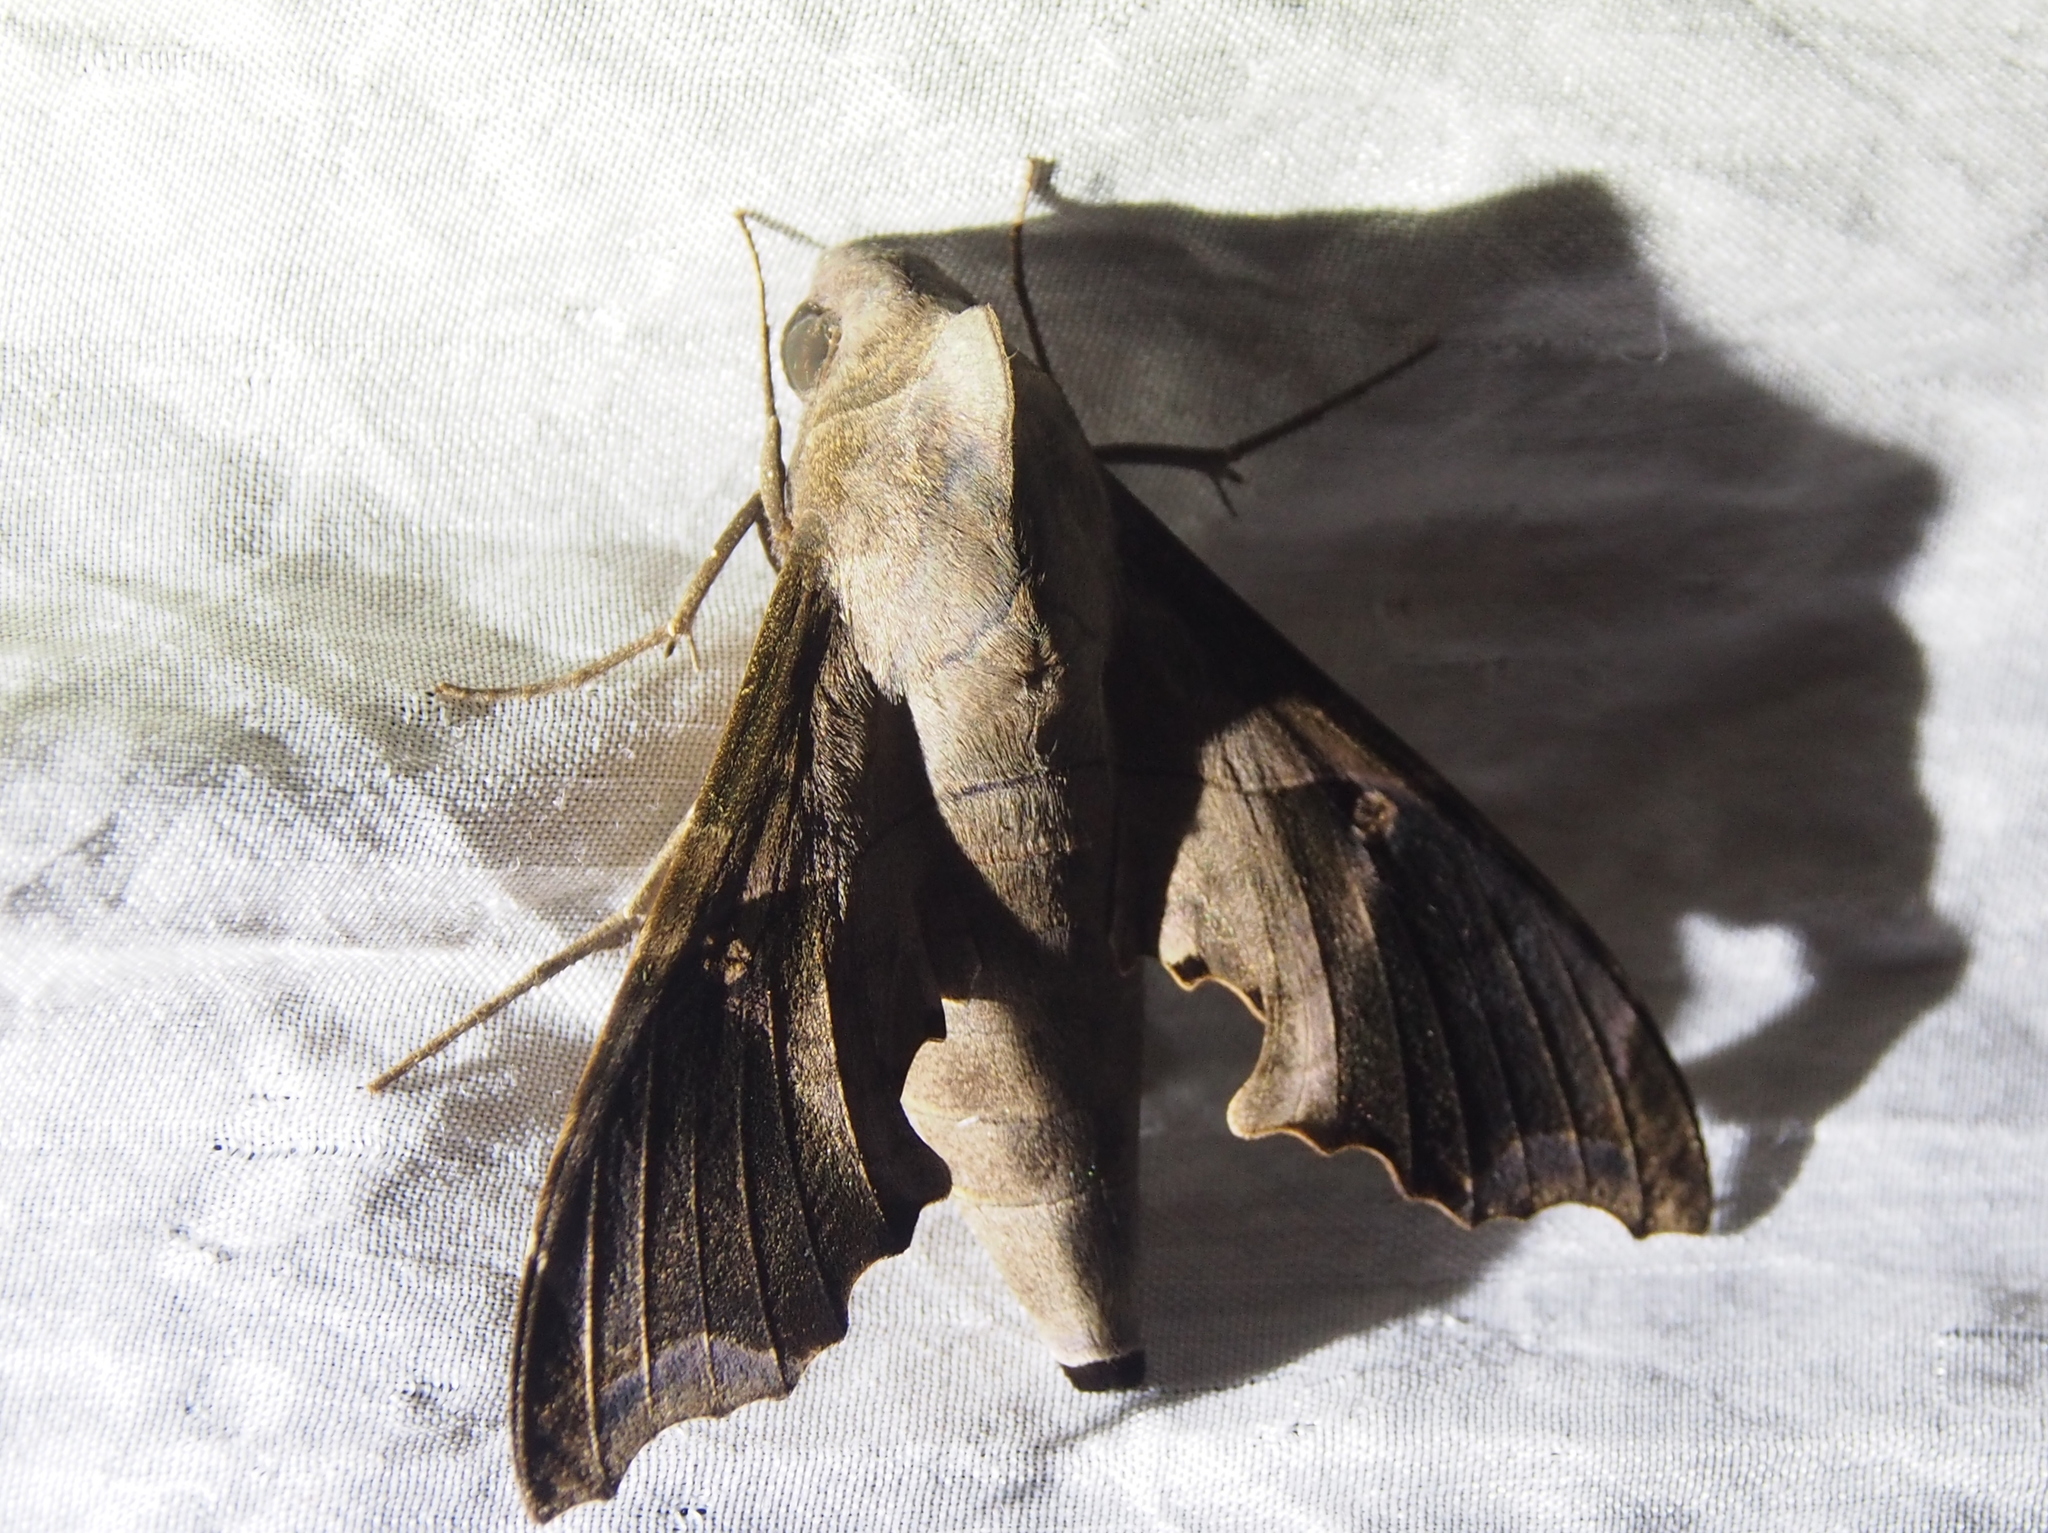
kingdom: Animalia
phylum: Arthropoda
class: Insecta
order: Lepidoptera
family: Sphingidae
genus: Enyo
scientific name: Enyo lugubris
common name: Mournful sphinx
